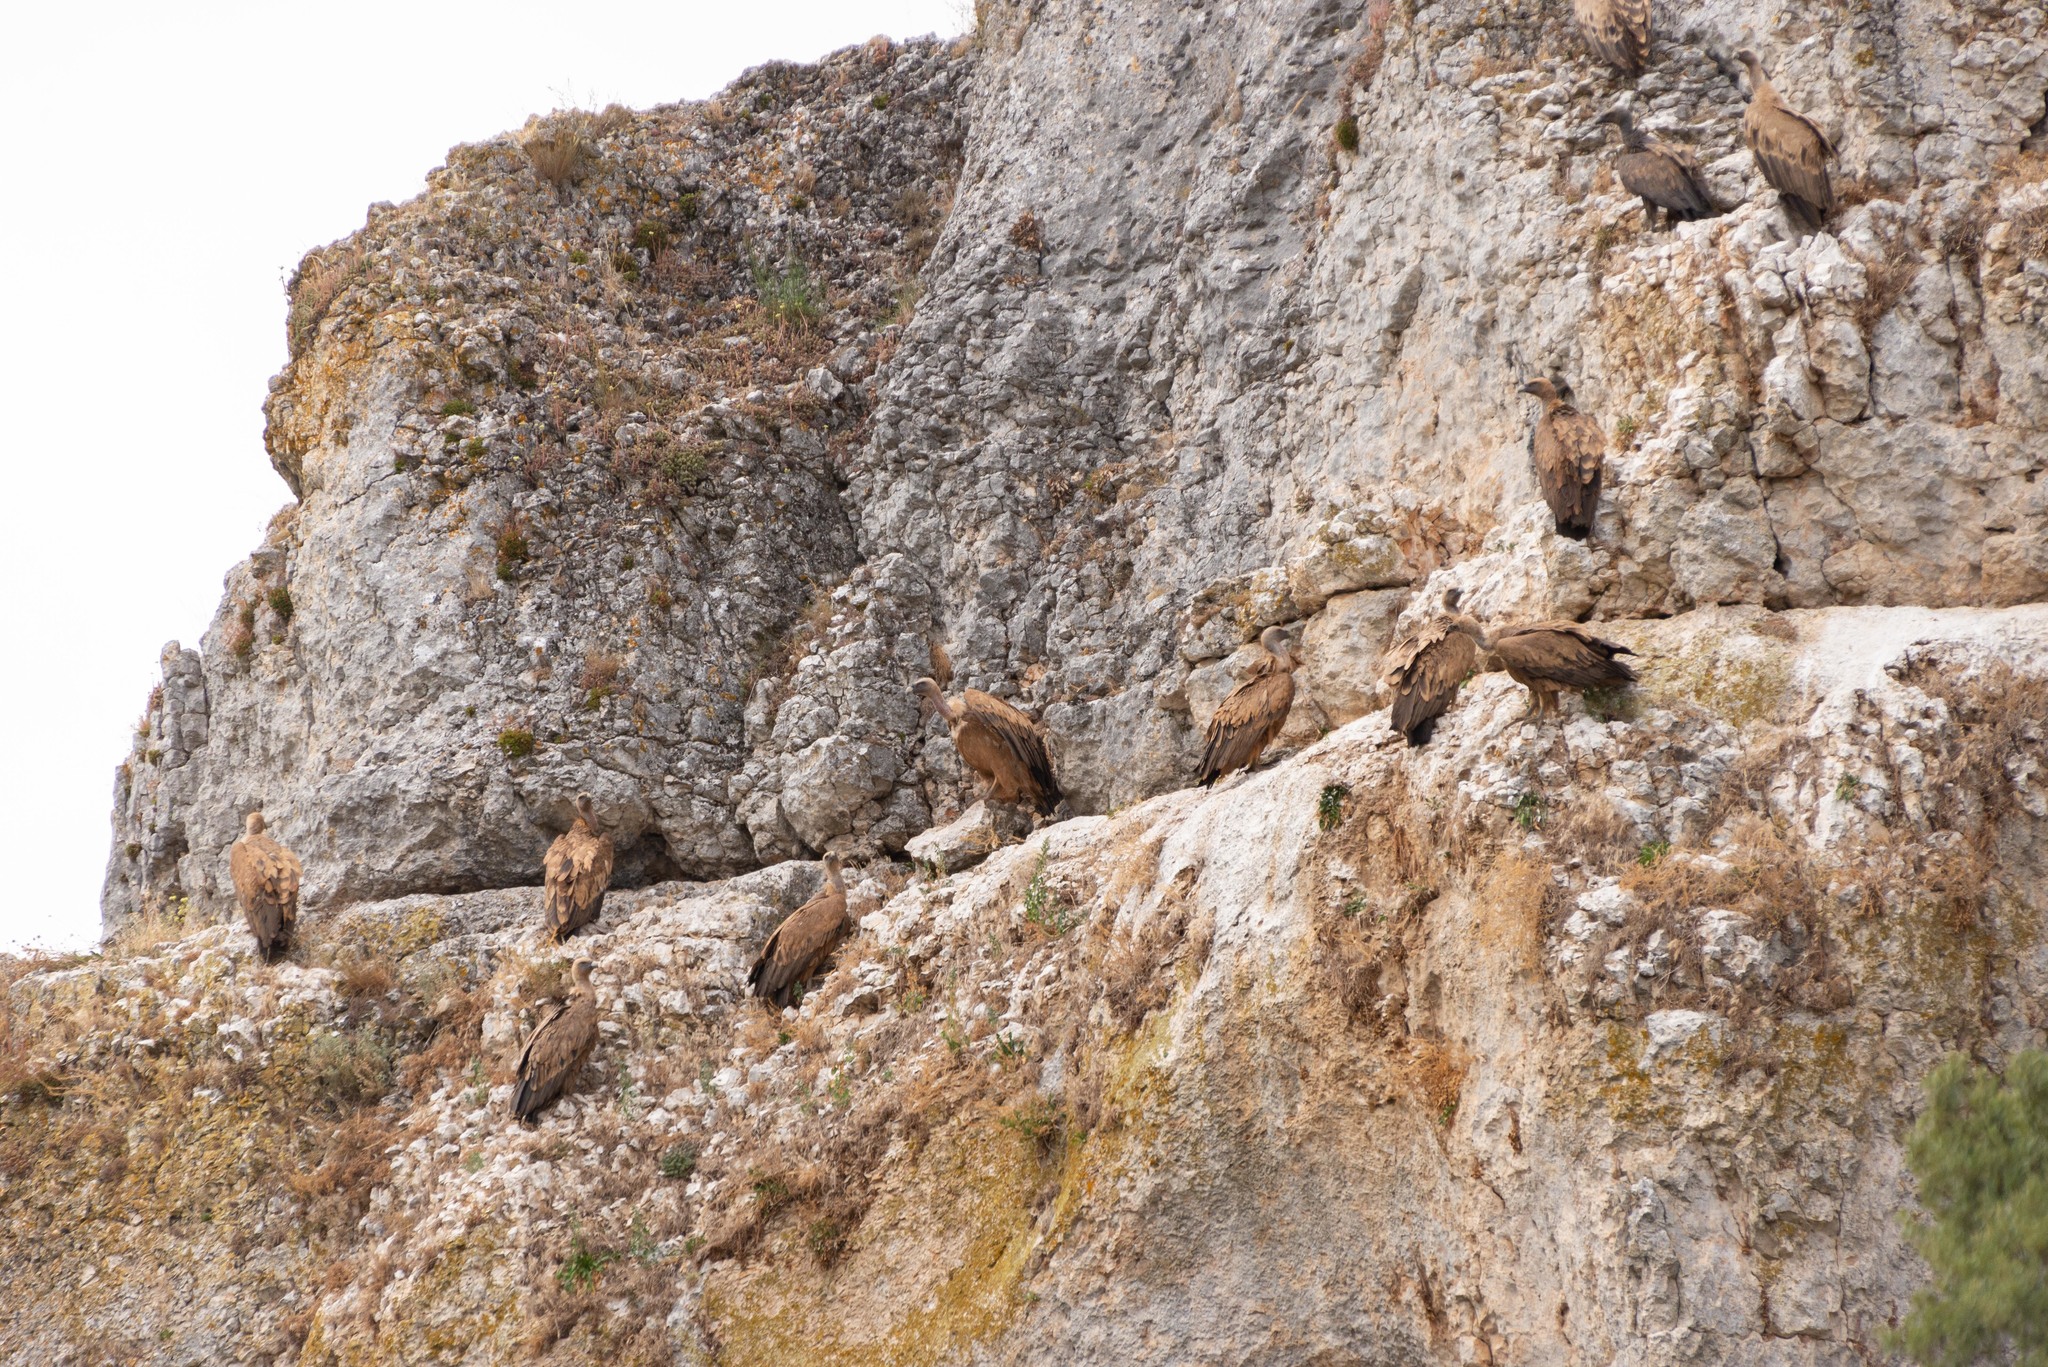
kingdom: Animalia
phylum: Chordata
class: Aves
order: Accipitriformes
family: Accipitridae
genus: Gyps
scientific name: Gyps fulvus
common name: Griffon vulture
